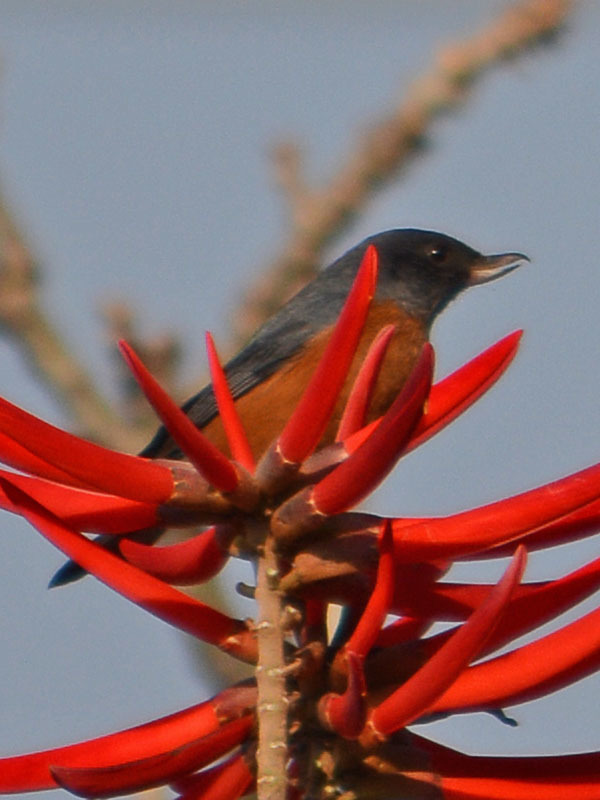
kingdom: Animalia
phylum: Chordata
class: Aves
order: Passeriformes
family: Thraupidae
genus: Diglossa
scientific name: Diglossa baritula
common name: Cinnamon-bellied flowerpiercer
